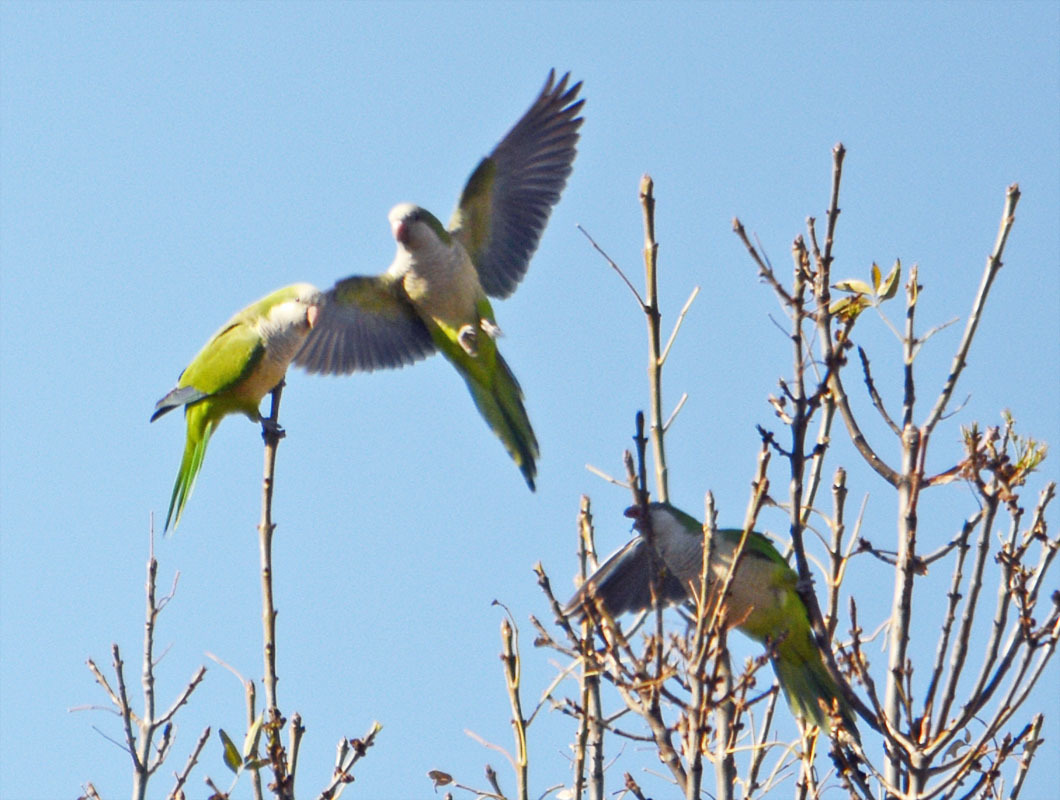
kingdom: Animalia
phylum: Chordata
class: Aves
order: Psittaciformes
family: Psittacidae
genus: Myiopsitta
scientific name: Myiopsitta monachus
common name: Monk parakeet
